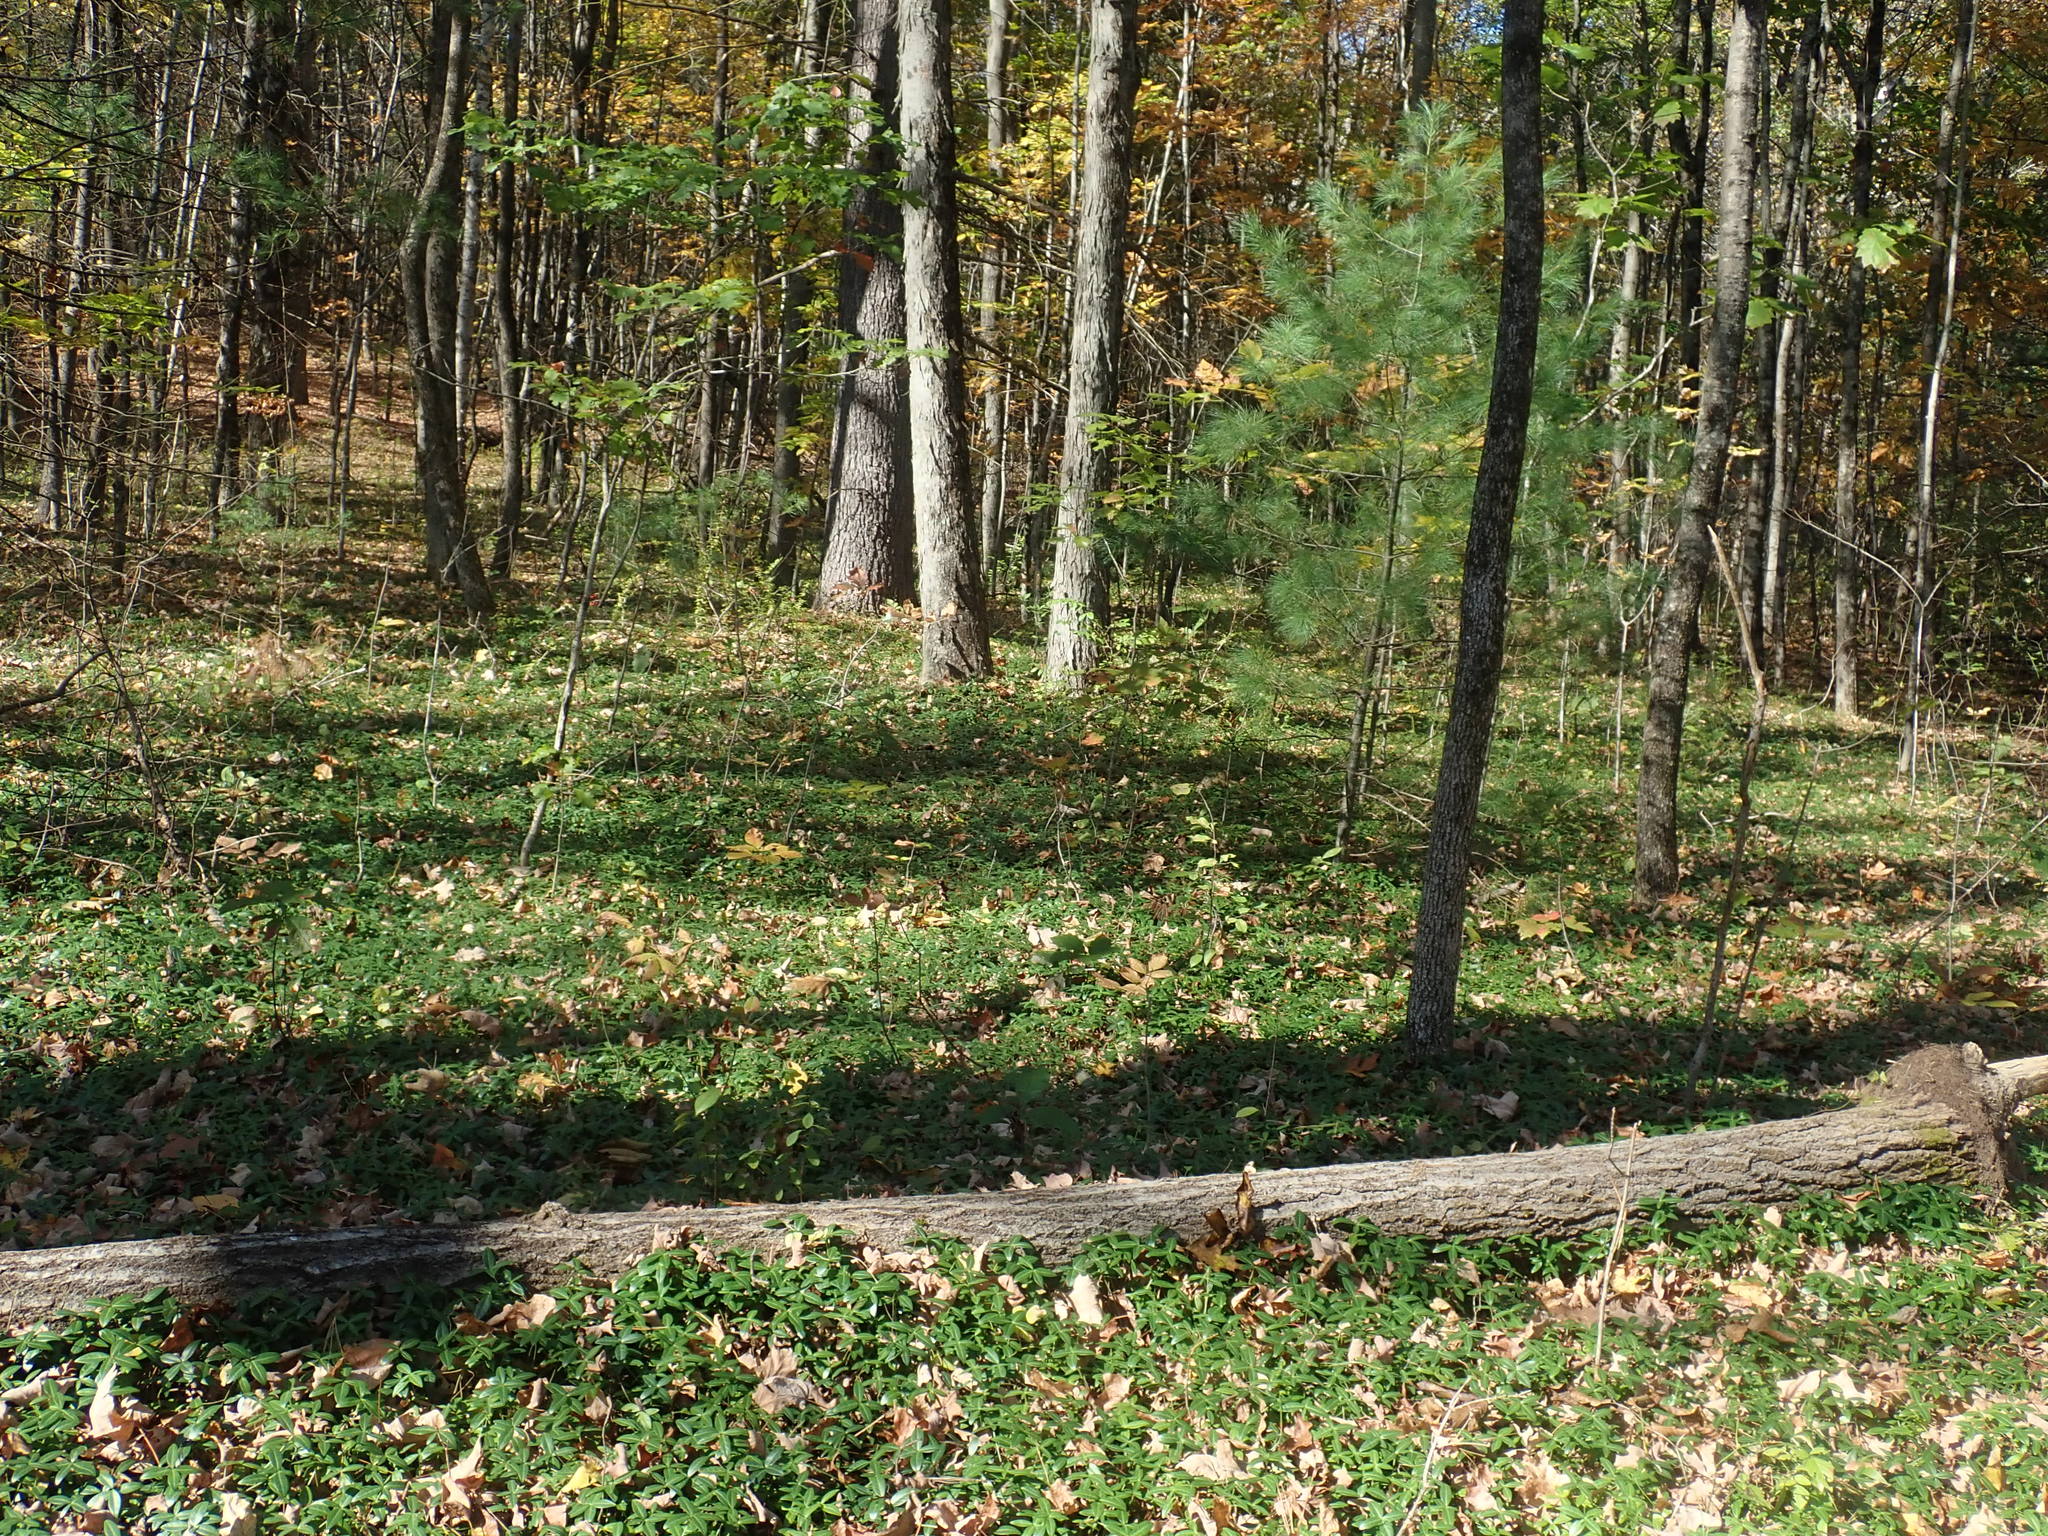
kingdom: Plantae
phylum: Tracheophyta
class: Magnoliopsida
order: Gentianales
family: Apocynaceae
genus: Vinca
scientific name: Vinca minor
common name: Lesser periwinkle
